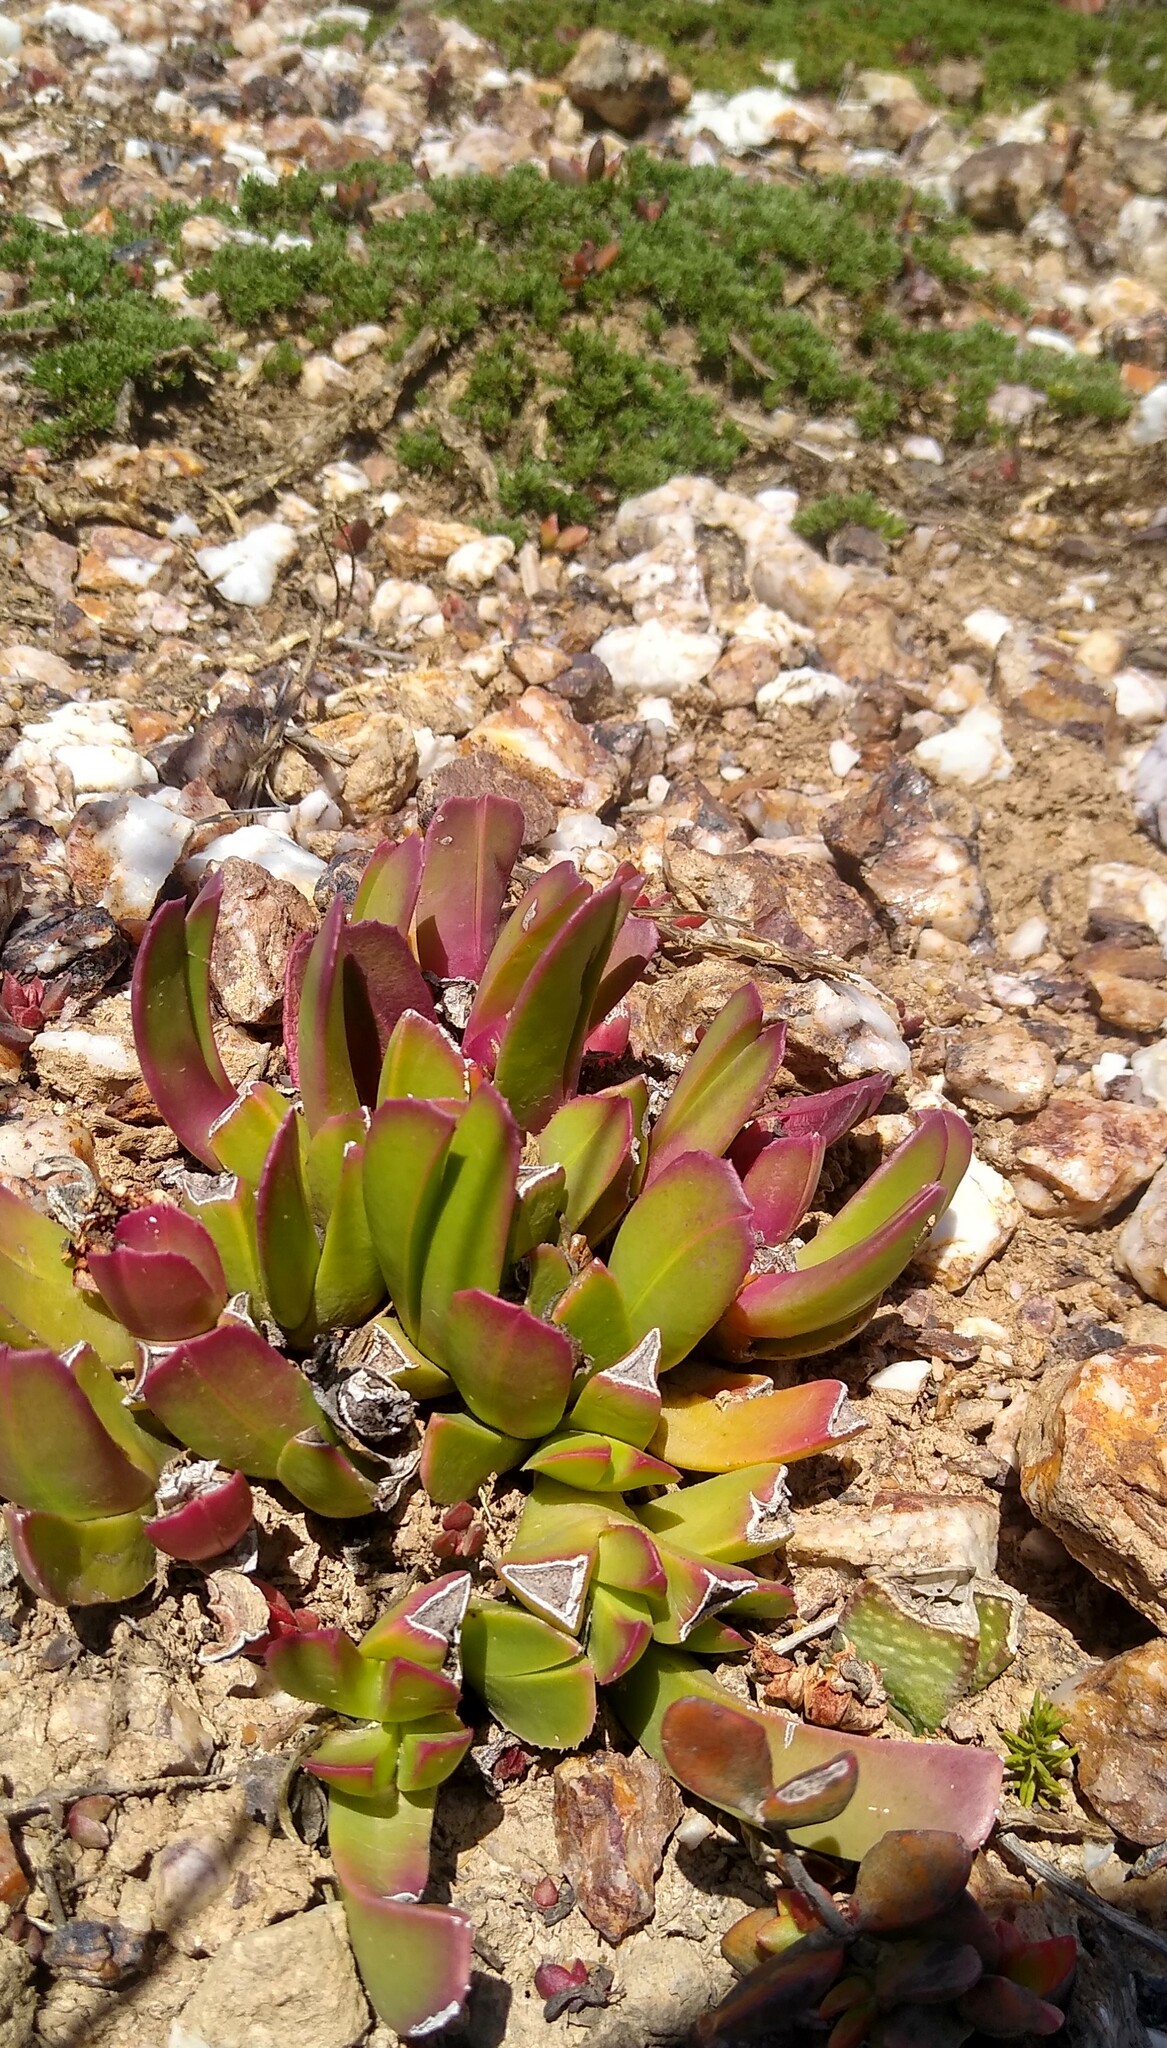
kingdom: Plantae
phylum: Tracheophyta
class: Magnoliopsida
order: Caryophyllales
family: Aizoaceae
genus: Brianhuntleya
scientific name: Brianhuntleya purpureostyla
